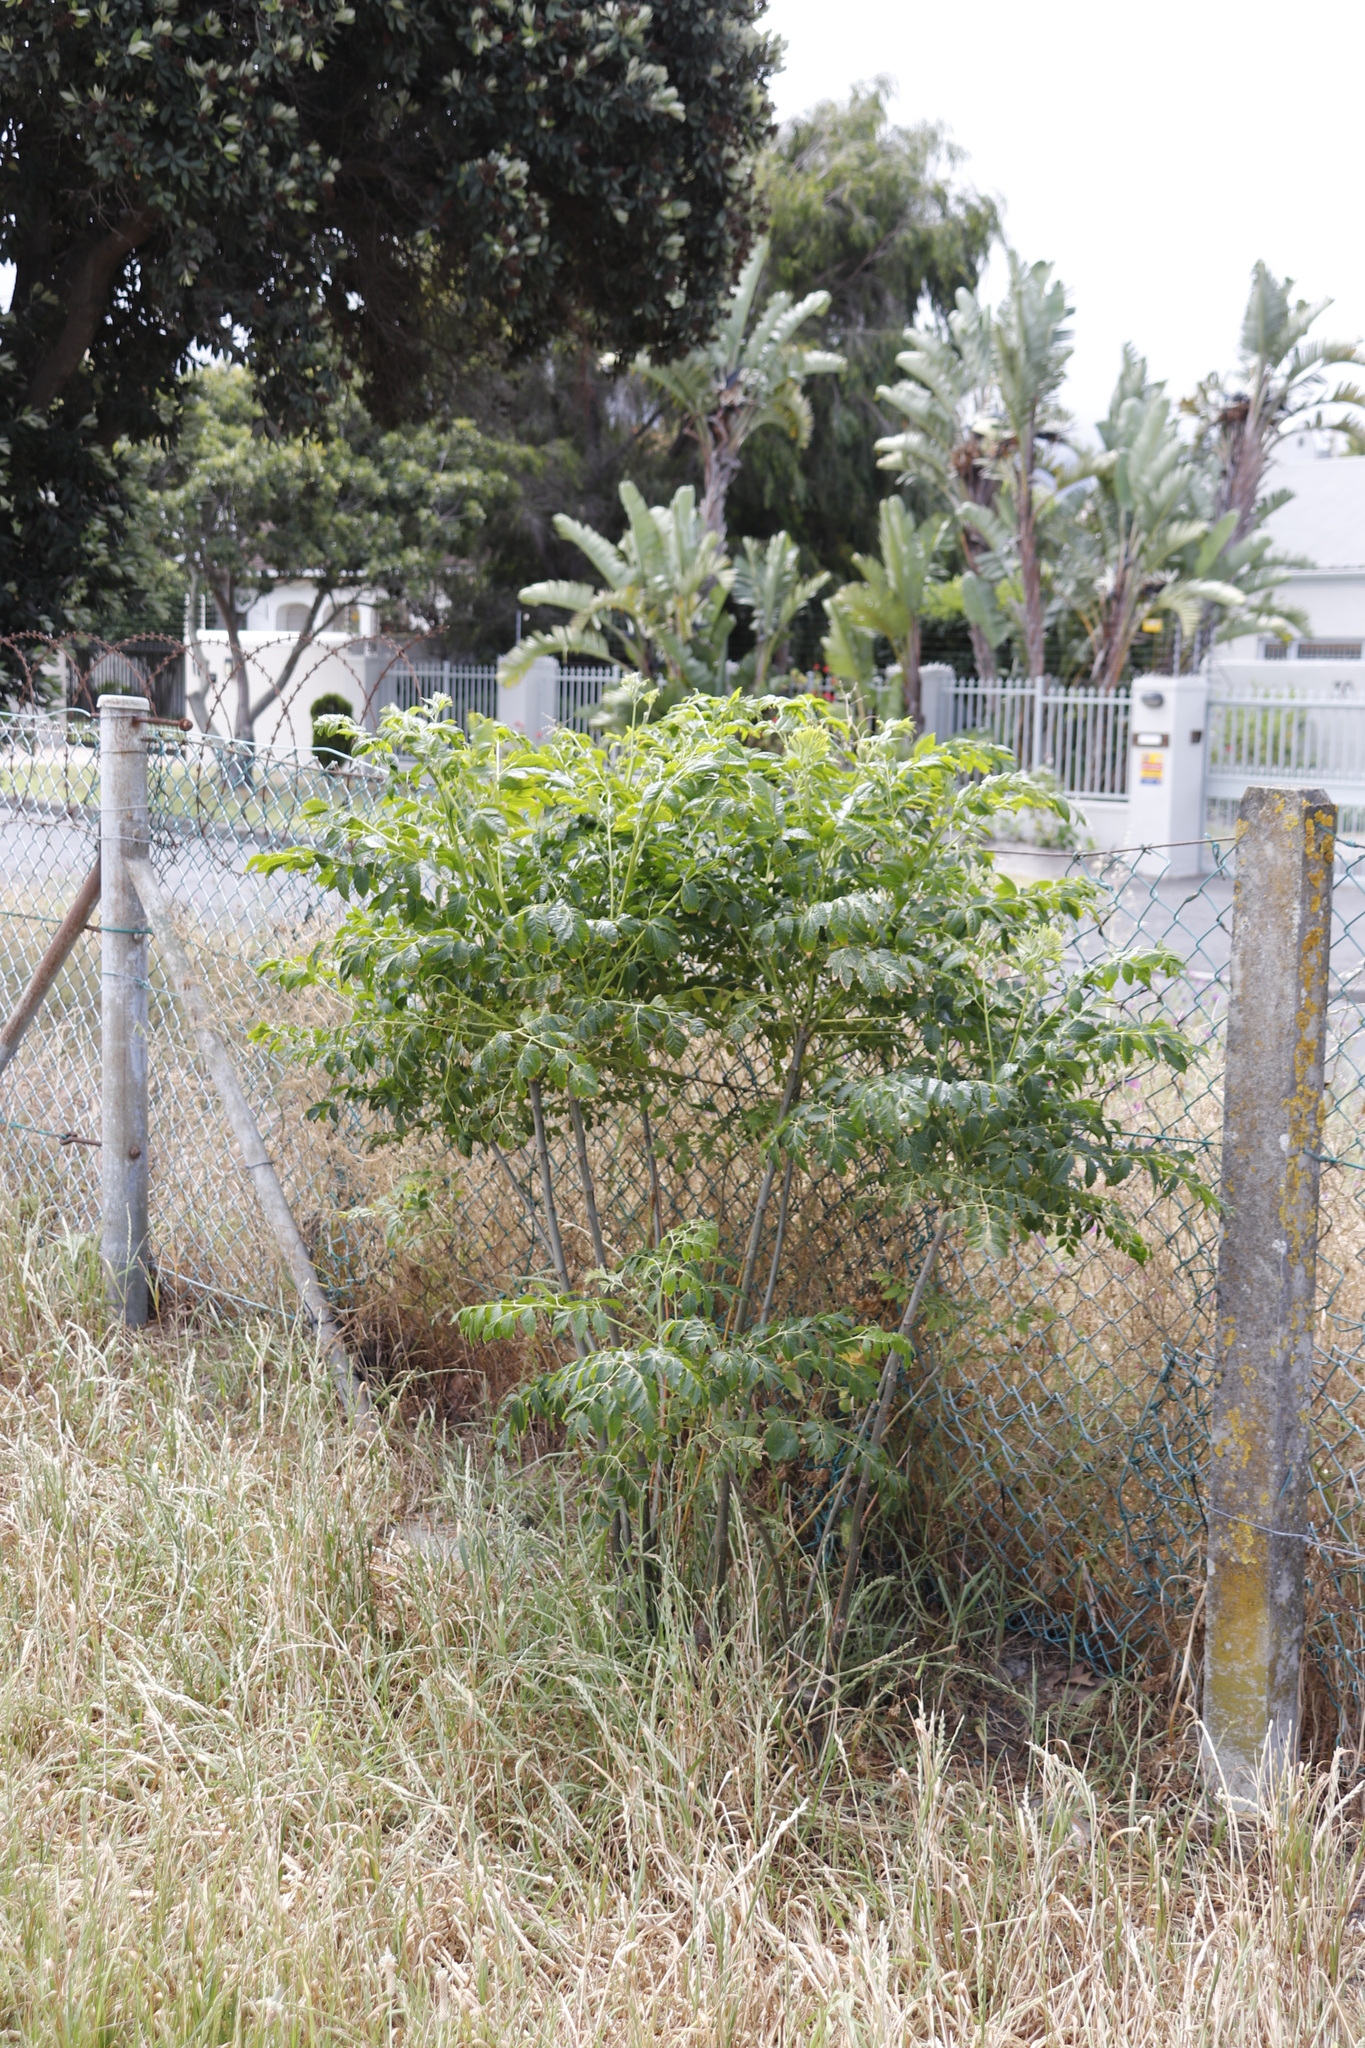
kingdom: Plantae
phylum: Tracheophyta
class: Magnoliopsida
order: Sapindales
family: Meliaceae
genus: Melia
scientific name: Melia azedarach
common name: Chinaberrytree
